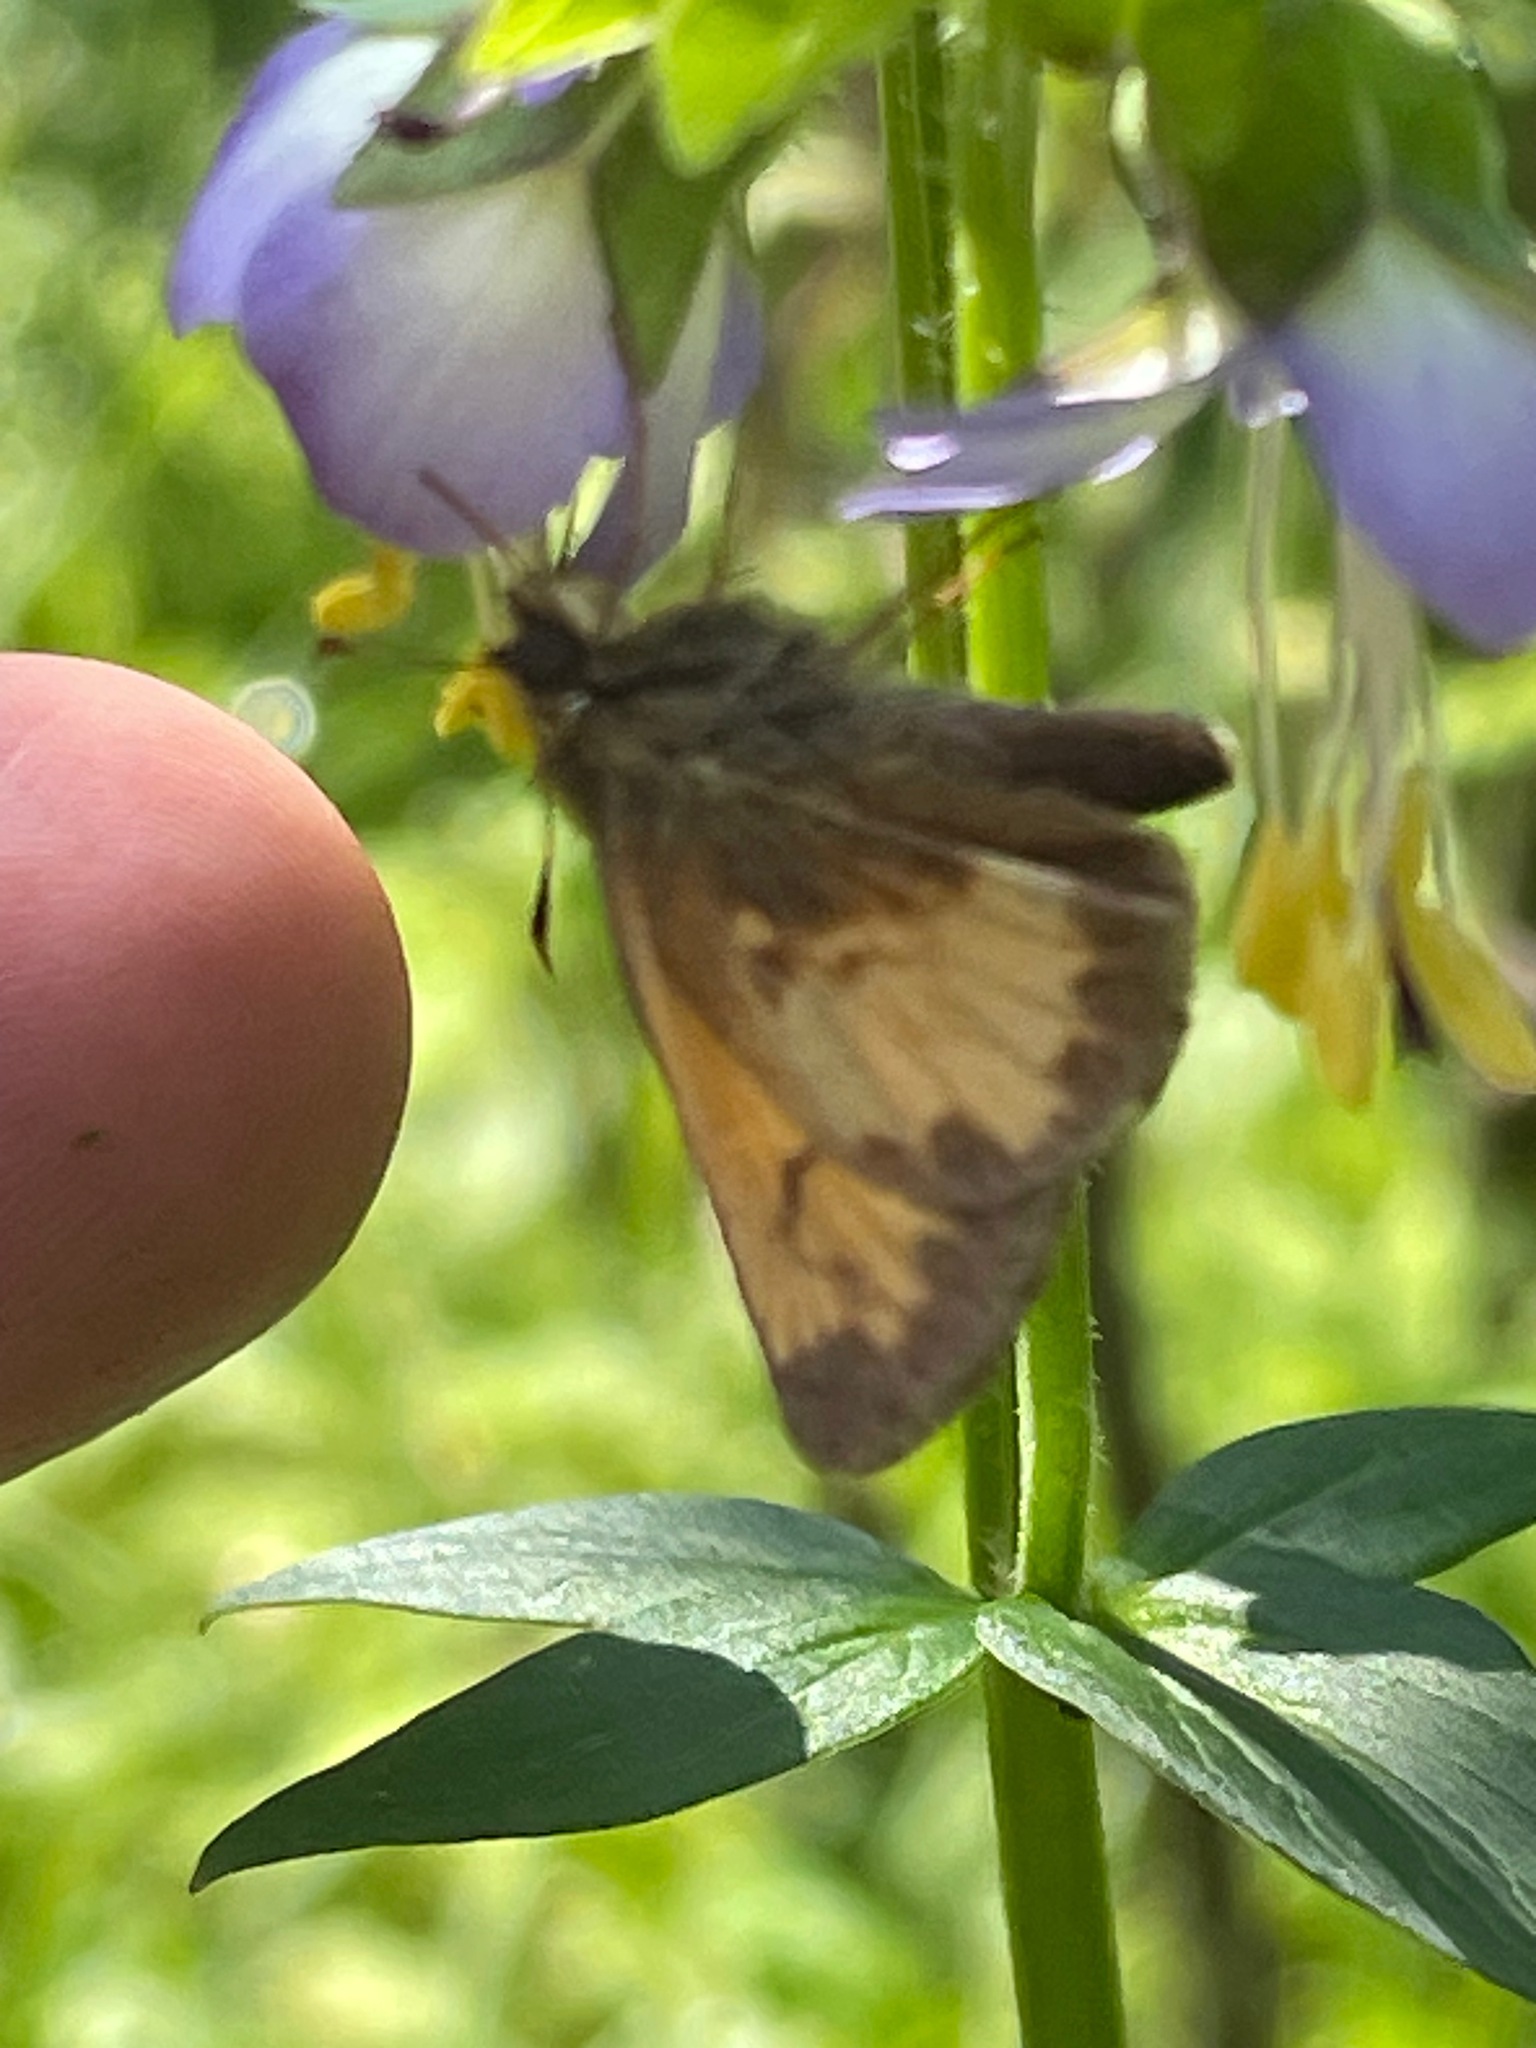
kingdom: Animalia
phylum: Arthropoda
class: Insecta
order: Lepidoptera
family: Hesperiidae
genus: Lon
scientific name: Lon hobomok
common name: Hobomok skipper
